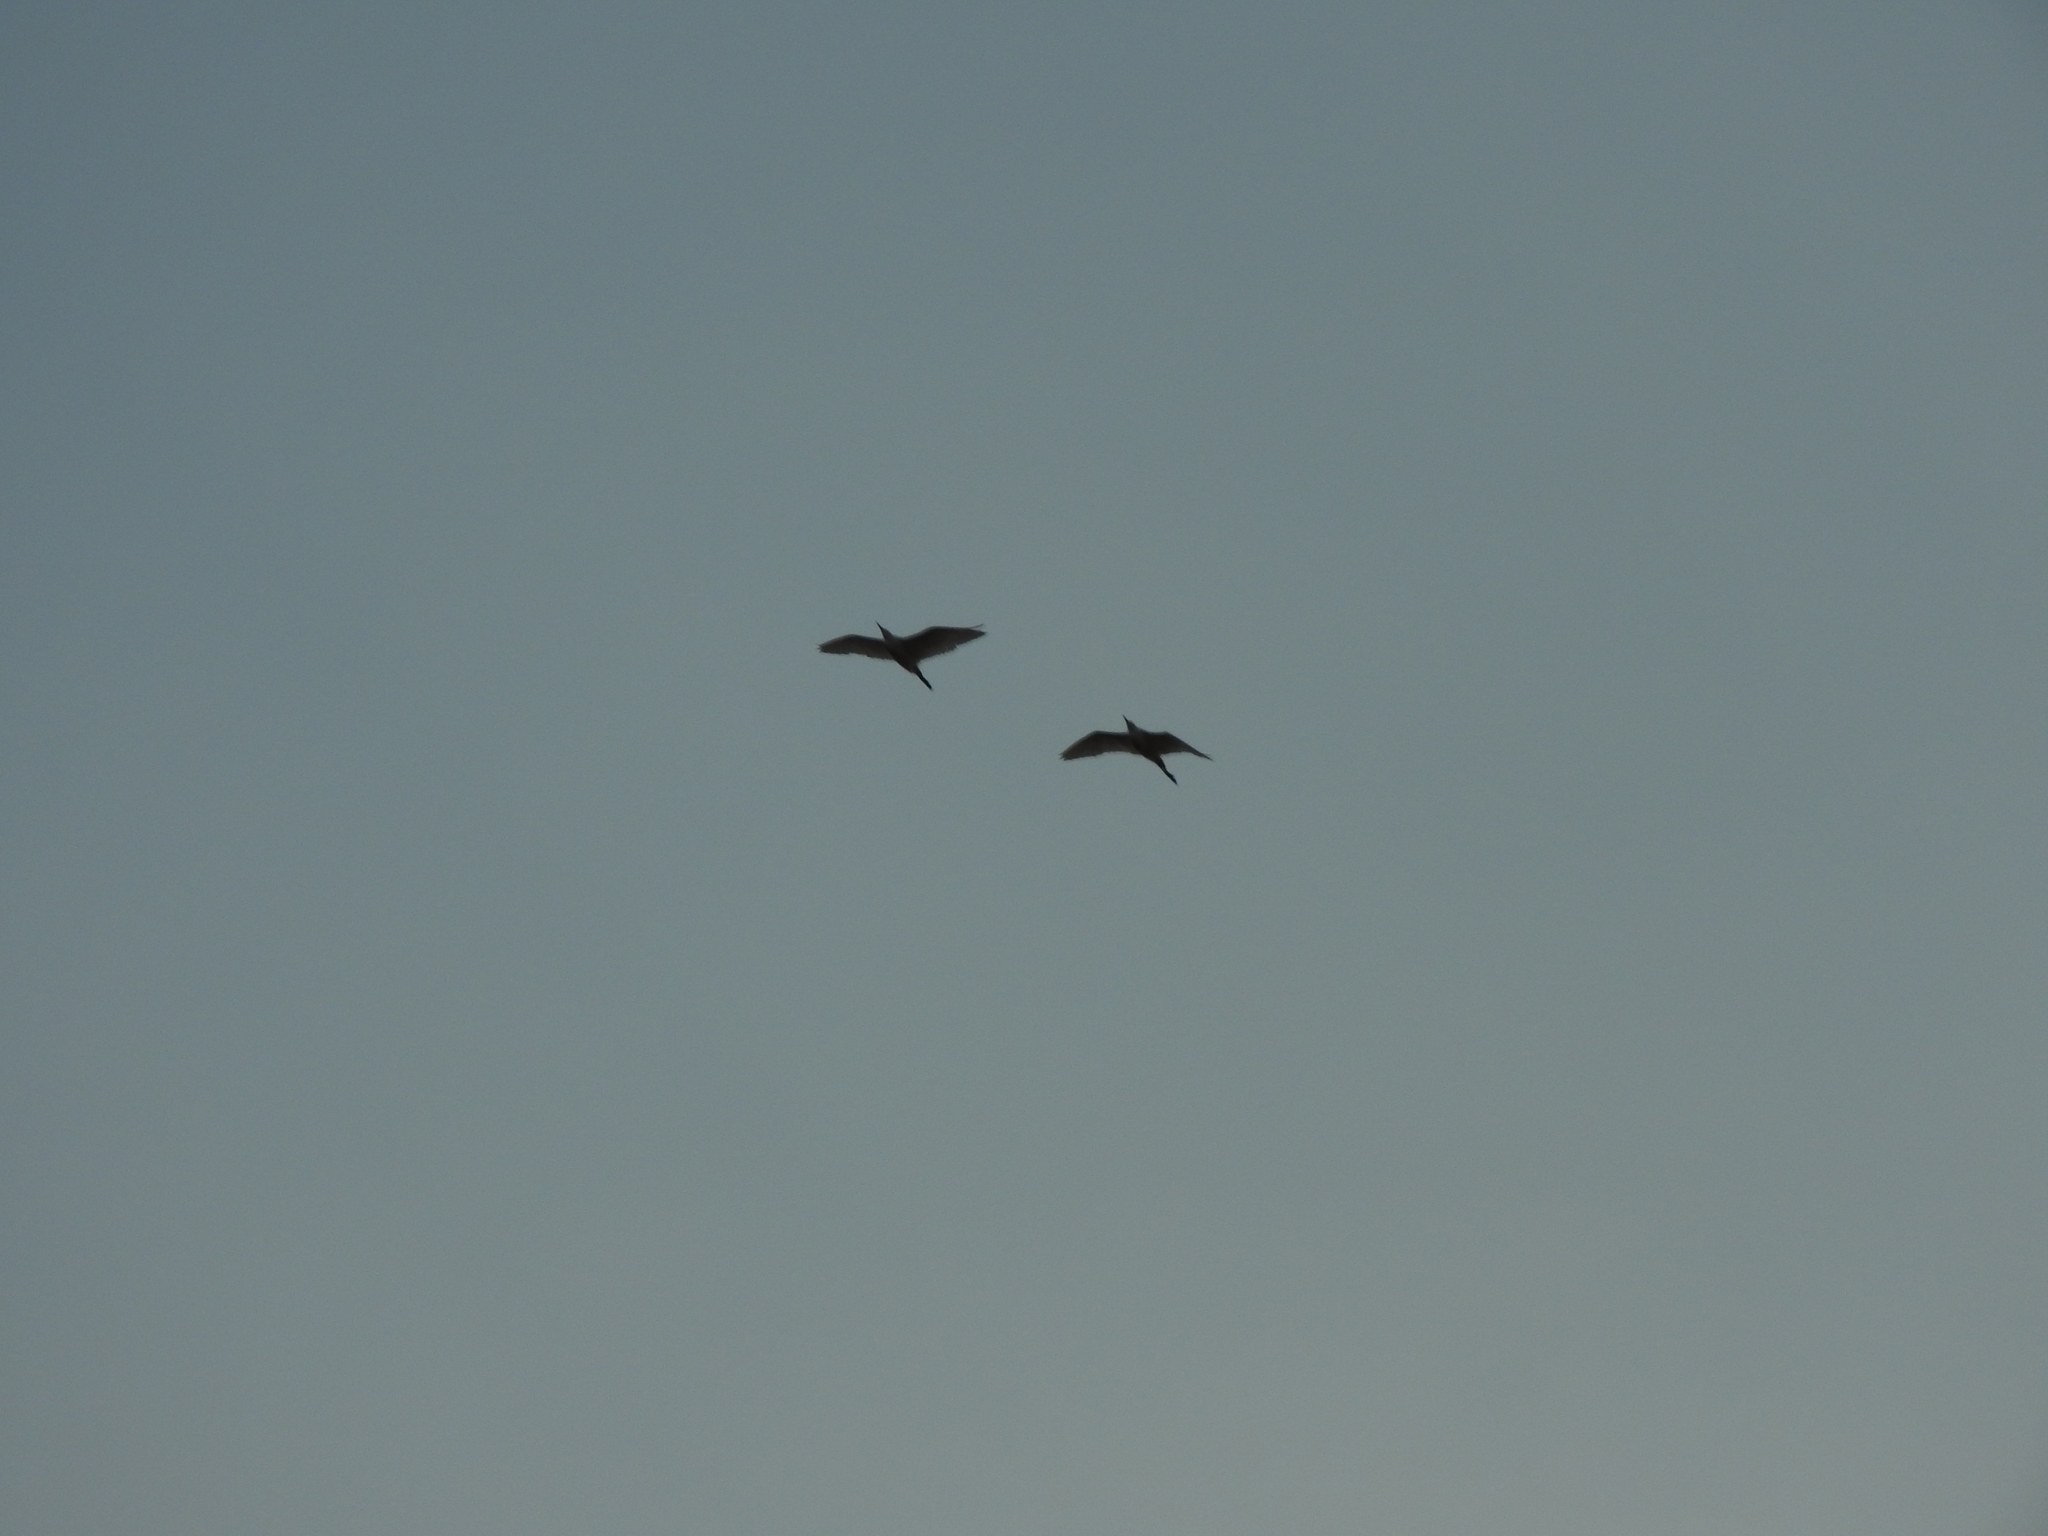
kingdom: Animalia
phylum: Chordata
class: Aves
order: Pelecaniformes
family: Ardeidae
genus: Bubulcus
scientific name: Bubulcus ibis
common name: Cattle egret
